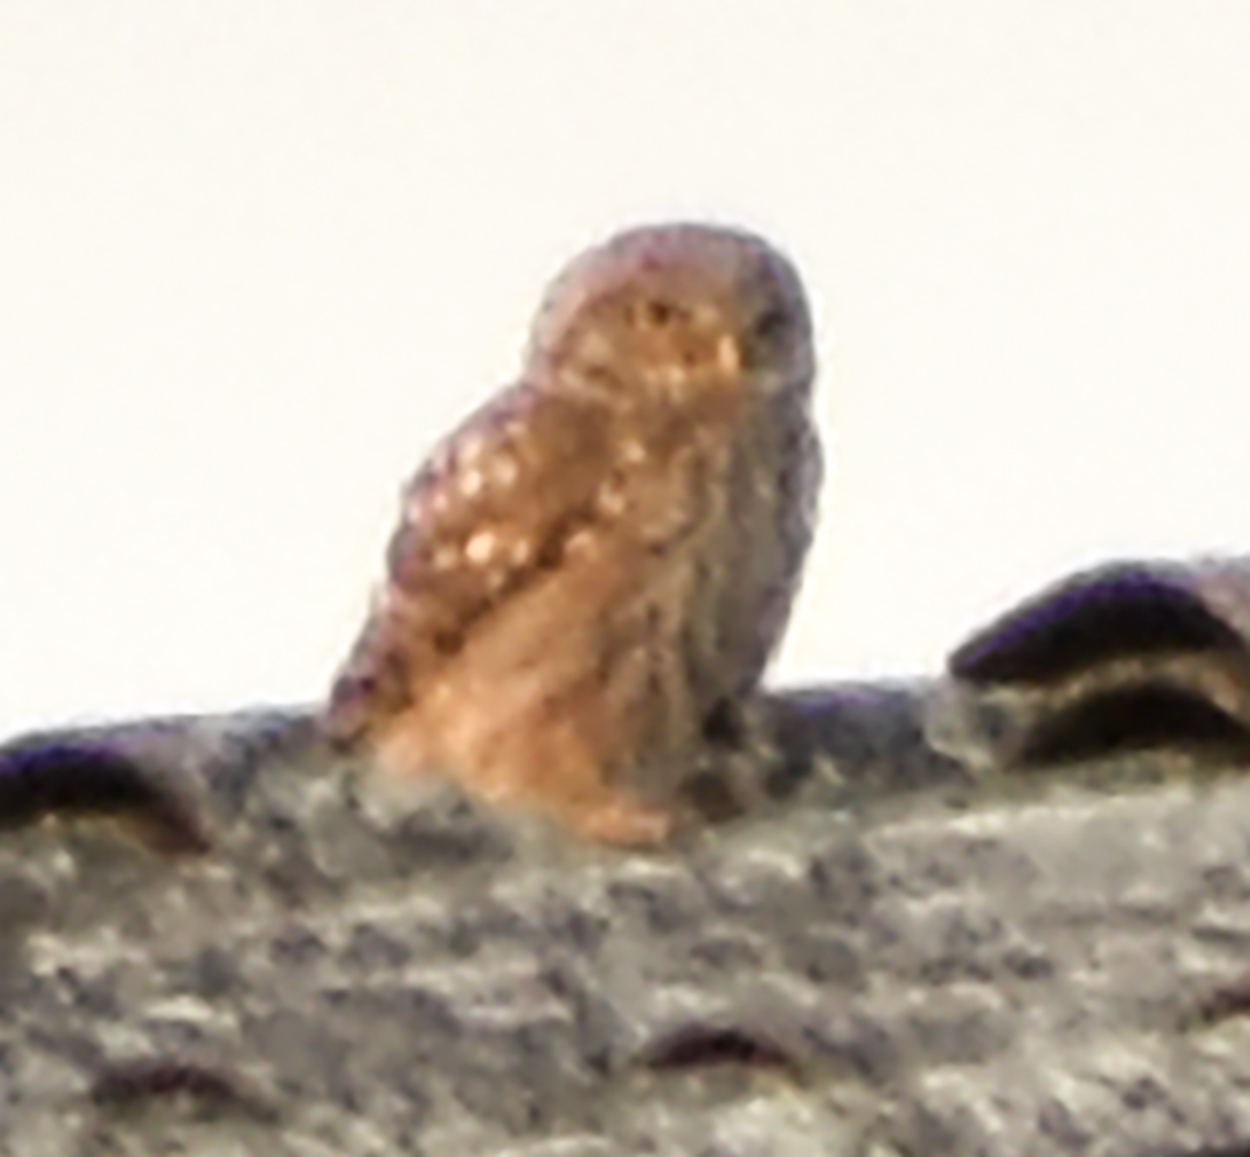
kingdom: Animalia
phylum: Chordata
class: Aves
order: Strigiformes
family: Strigidae
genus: Athene
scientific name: Athene noctua
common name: Little owl
